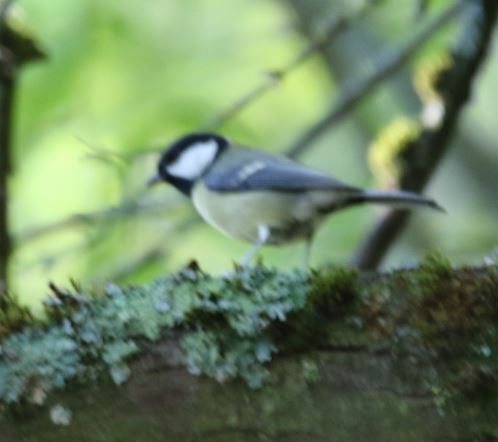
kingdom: Animalia
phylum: Chordata
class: Aves
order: Passeriformes
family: Paridae
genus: Parus
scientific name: Parus major
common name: Great tit
